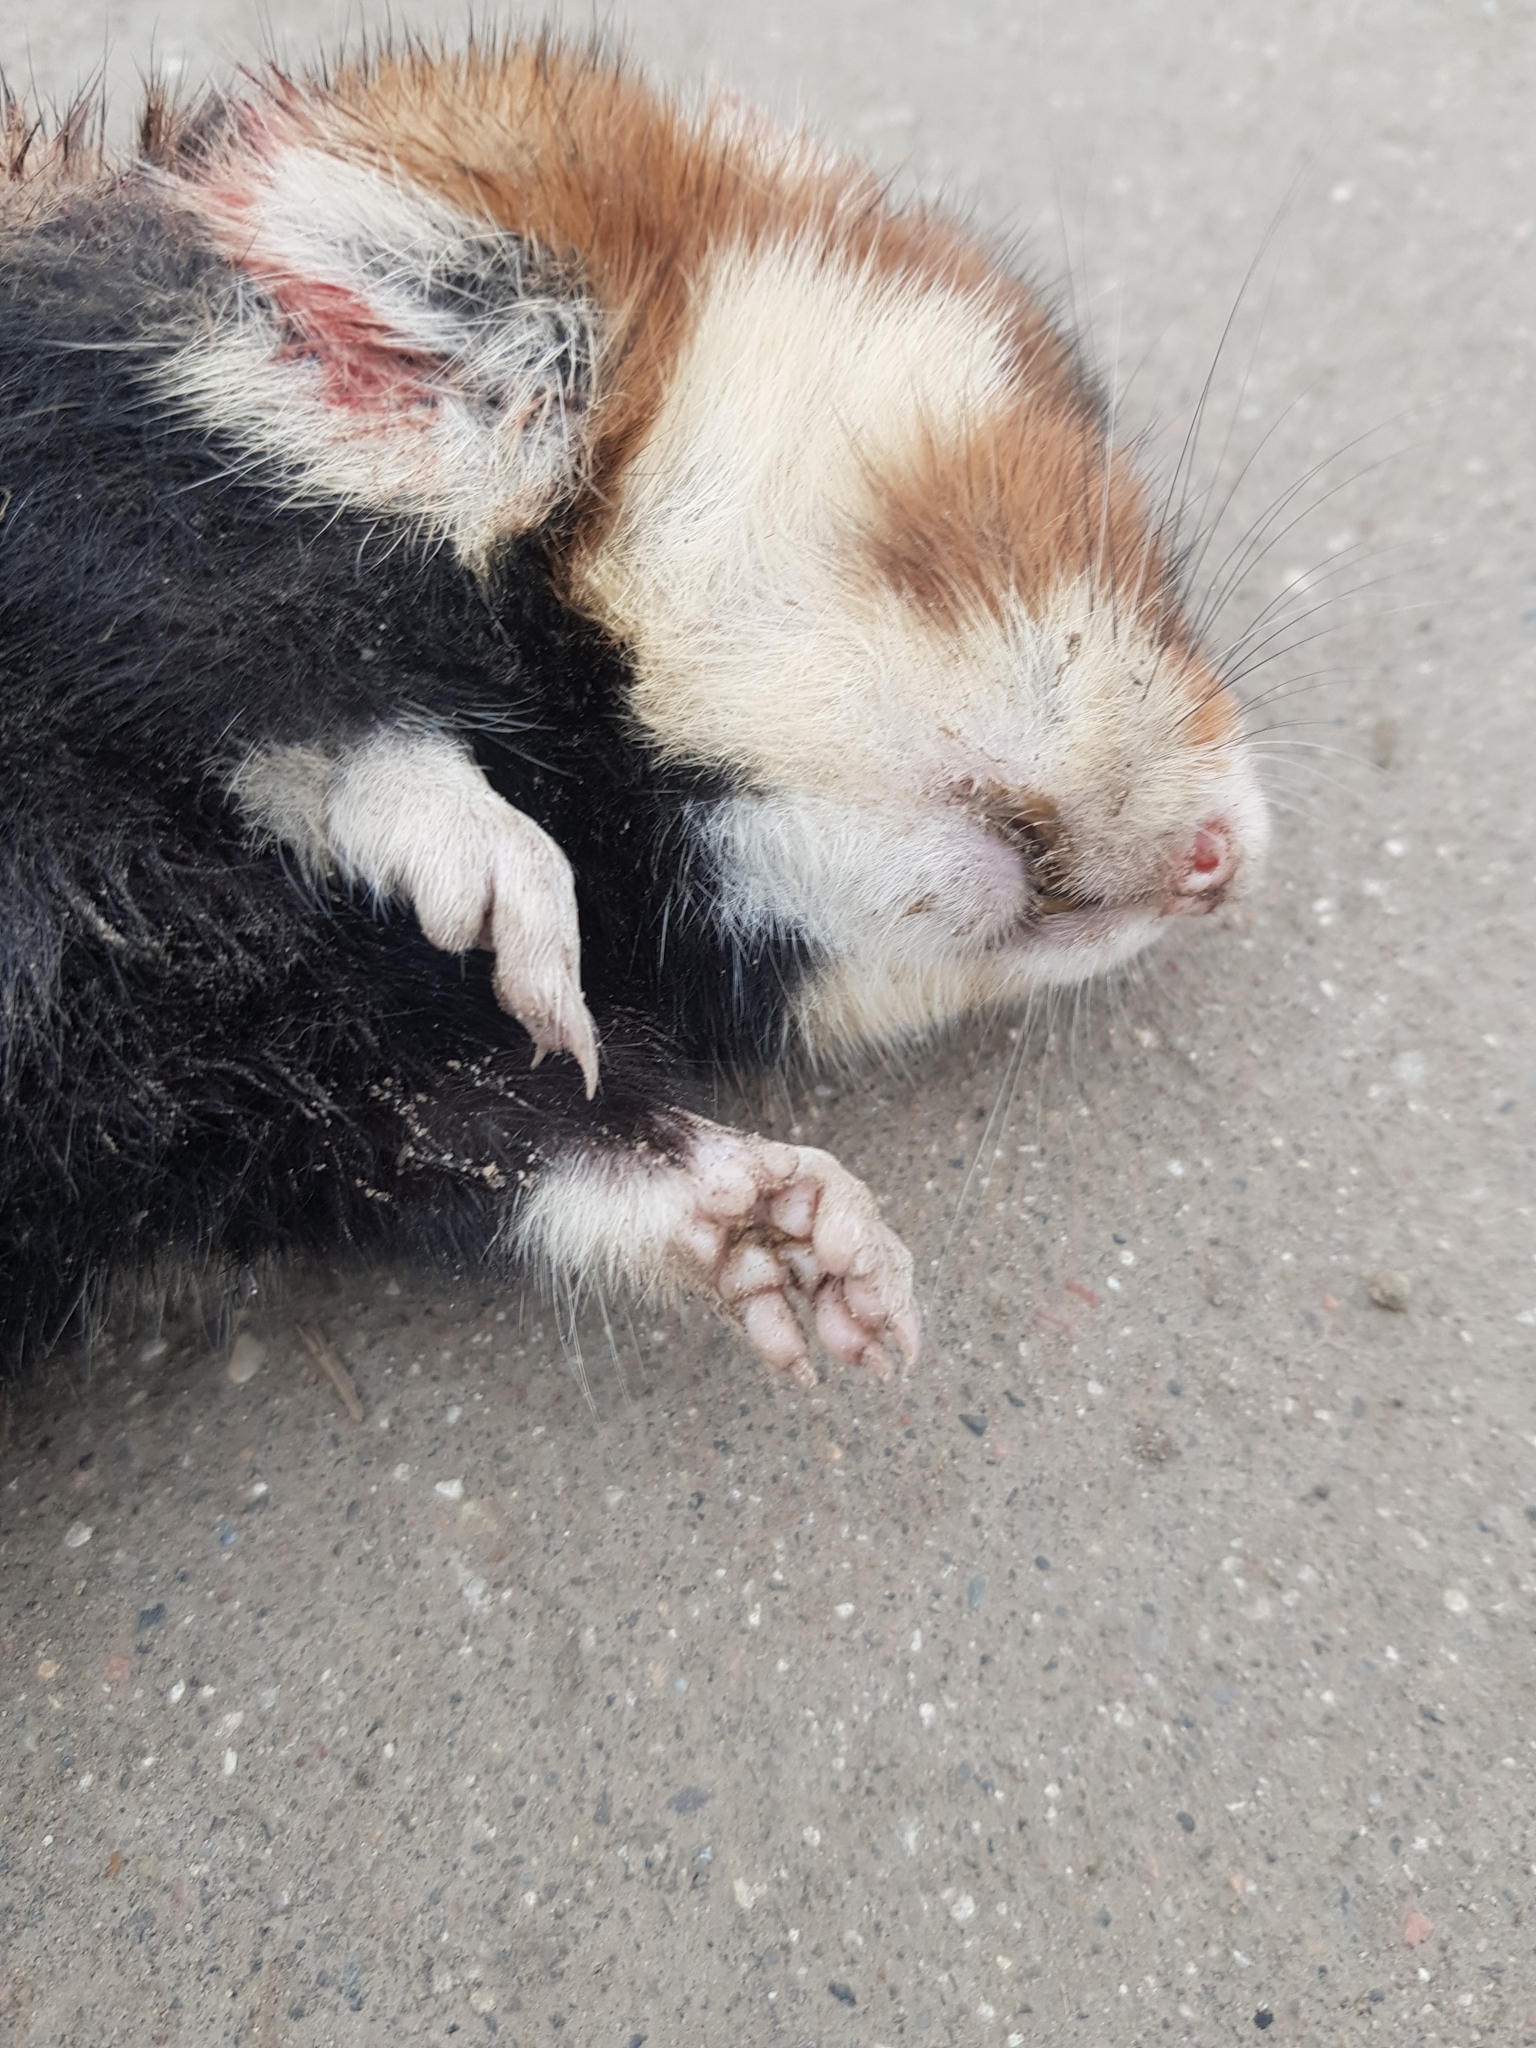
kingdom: Animalia
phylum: Chordata
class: Mammalia
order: Rodentia
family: Cricetidae
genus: Cricetus
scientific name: Cricetus cricetus
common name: Common hamster
